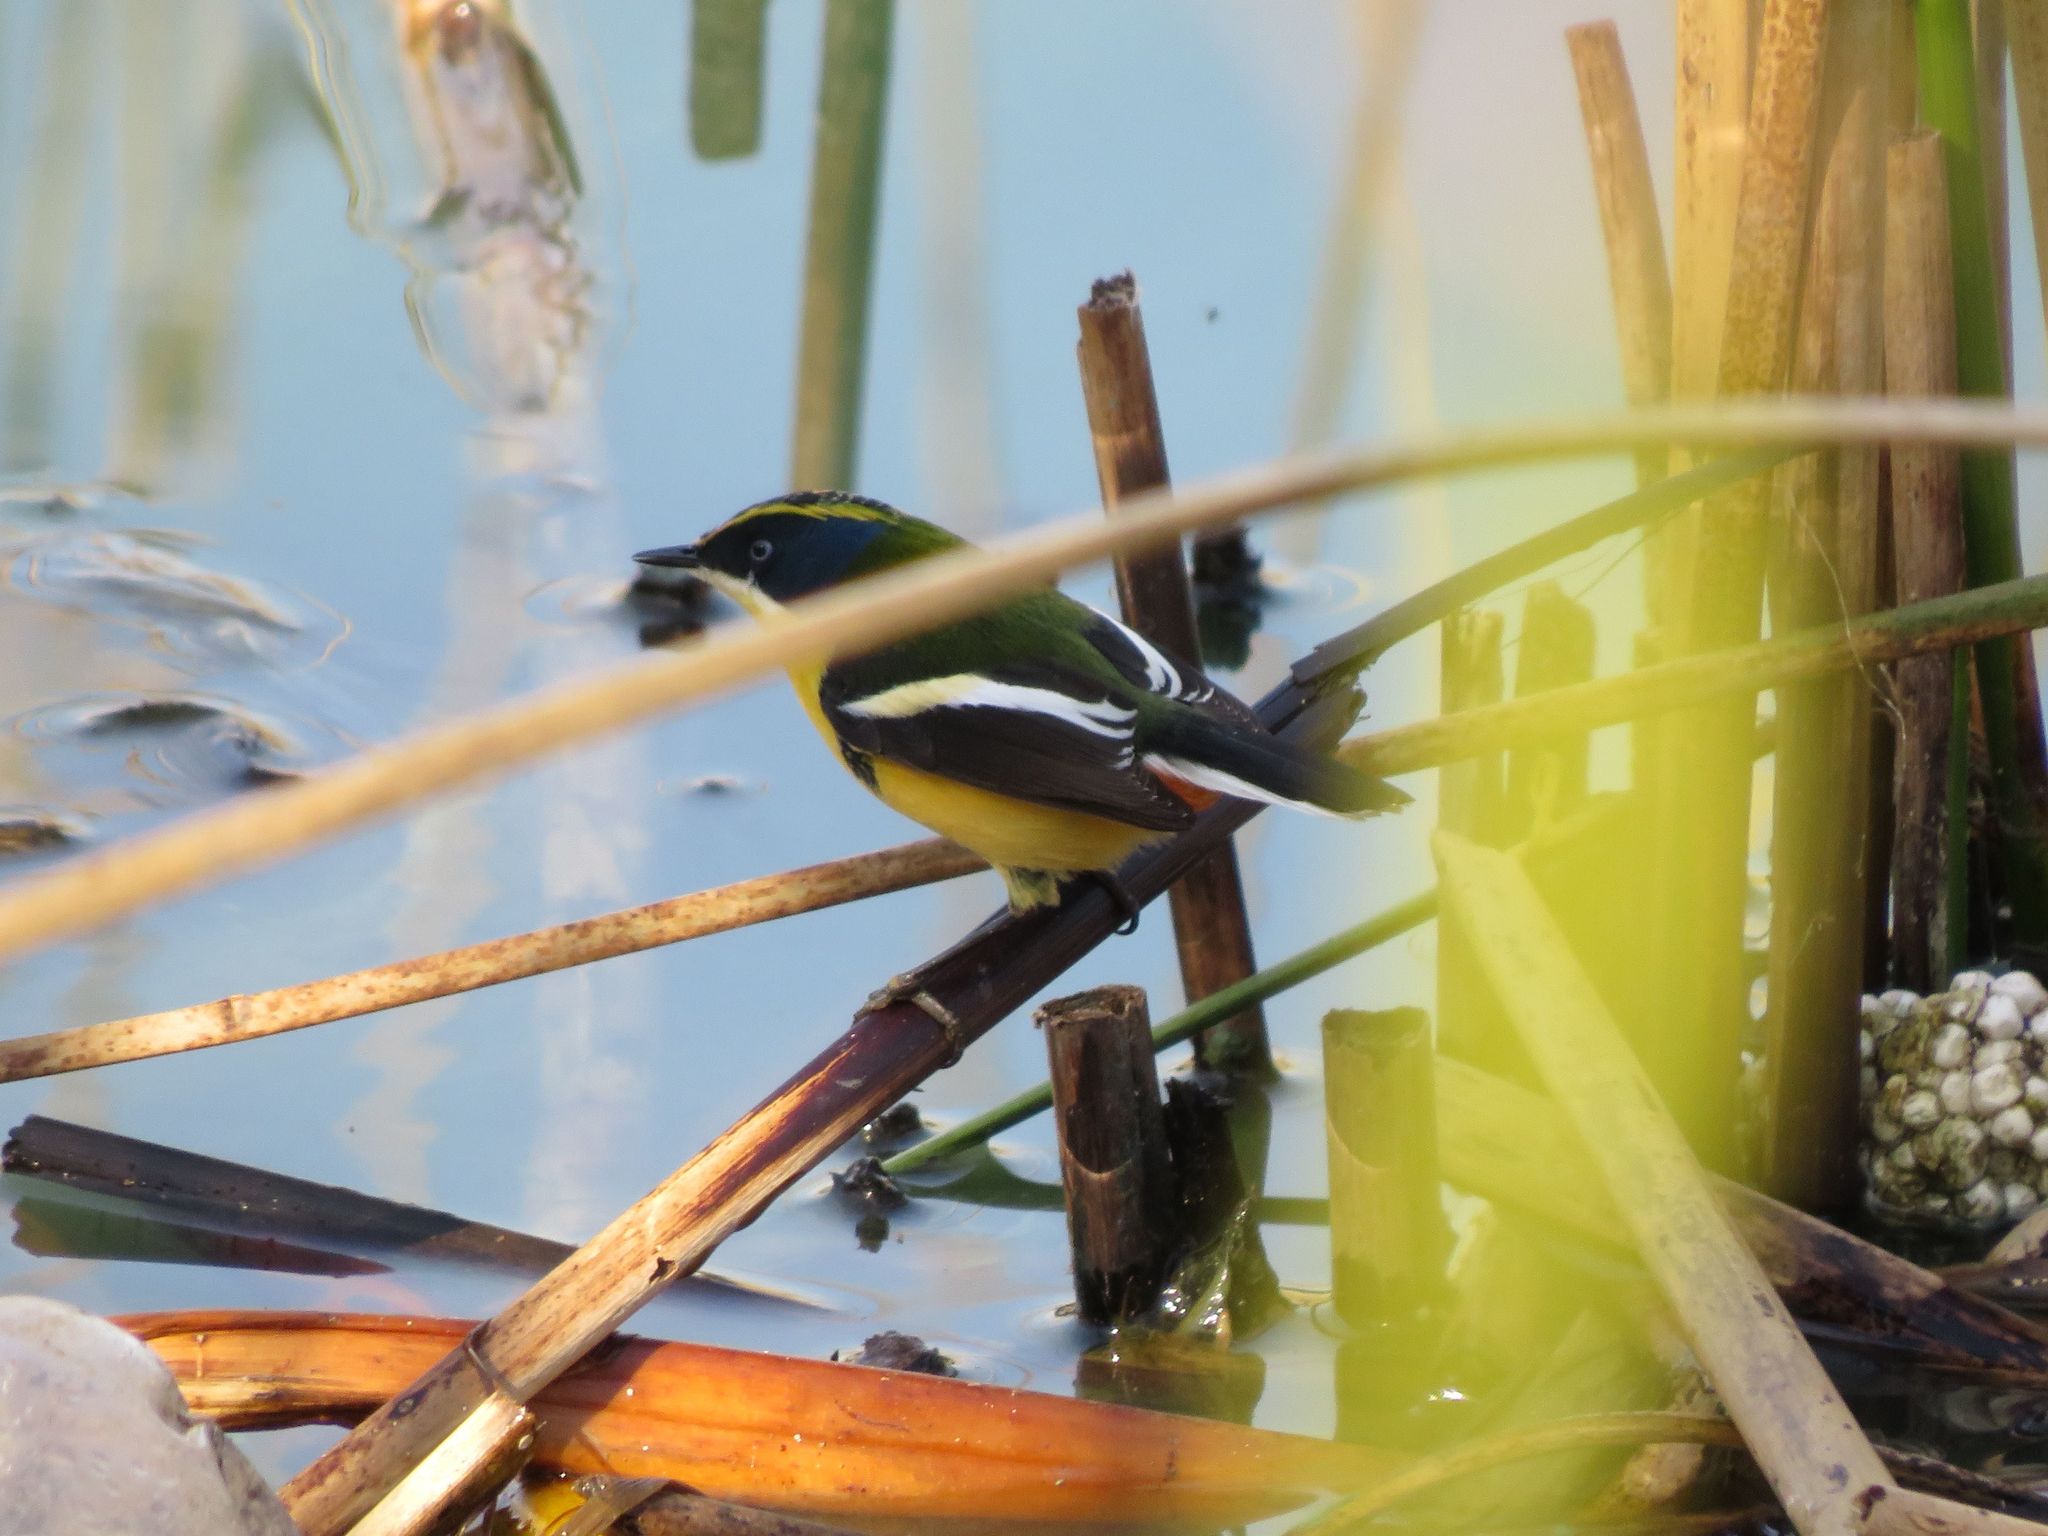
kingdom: Animalia
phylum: Chordata
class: Aves
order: Passeriformes
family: Tyrannidae
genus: Tachuris
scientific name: Tachuris rubrigastra
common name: Many-colored rush tyrant
